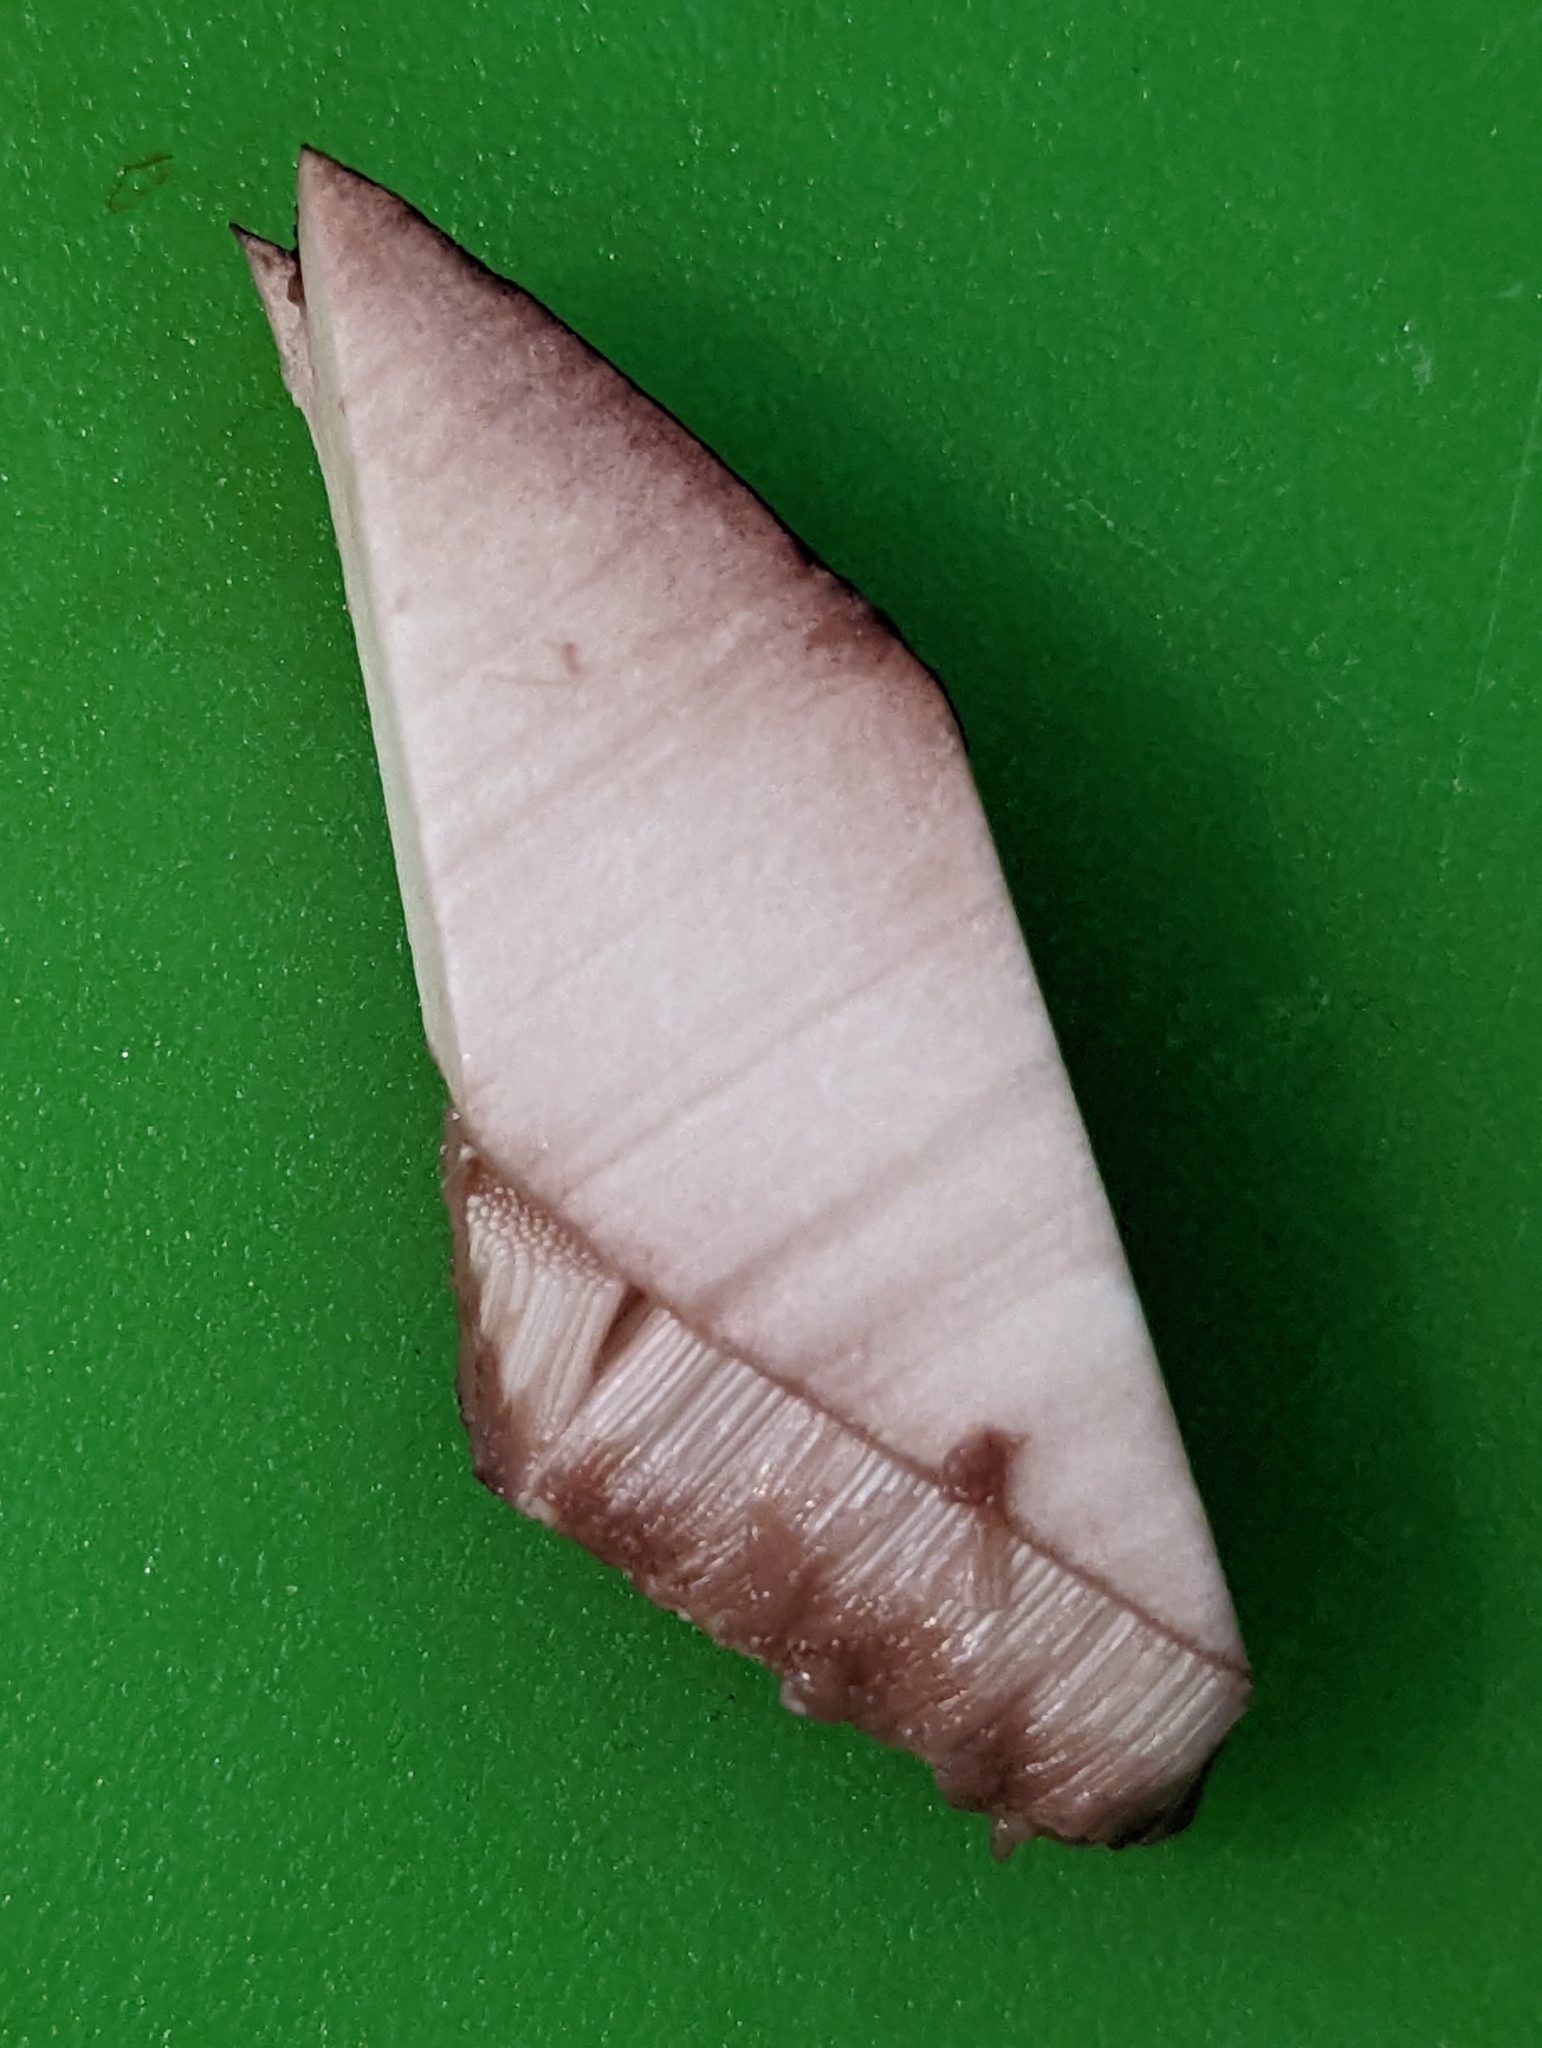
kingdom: Fungi
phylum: Basidiomycota
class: Agaricomycetes
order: Boletales
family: Boletaceae
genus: Tylopilus
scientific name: Tylopilus variobrunneus
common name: Brown-net bolete
